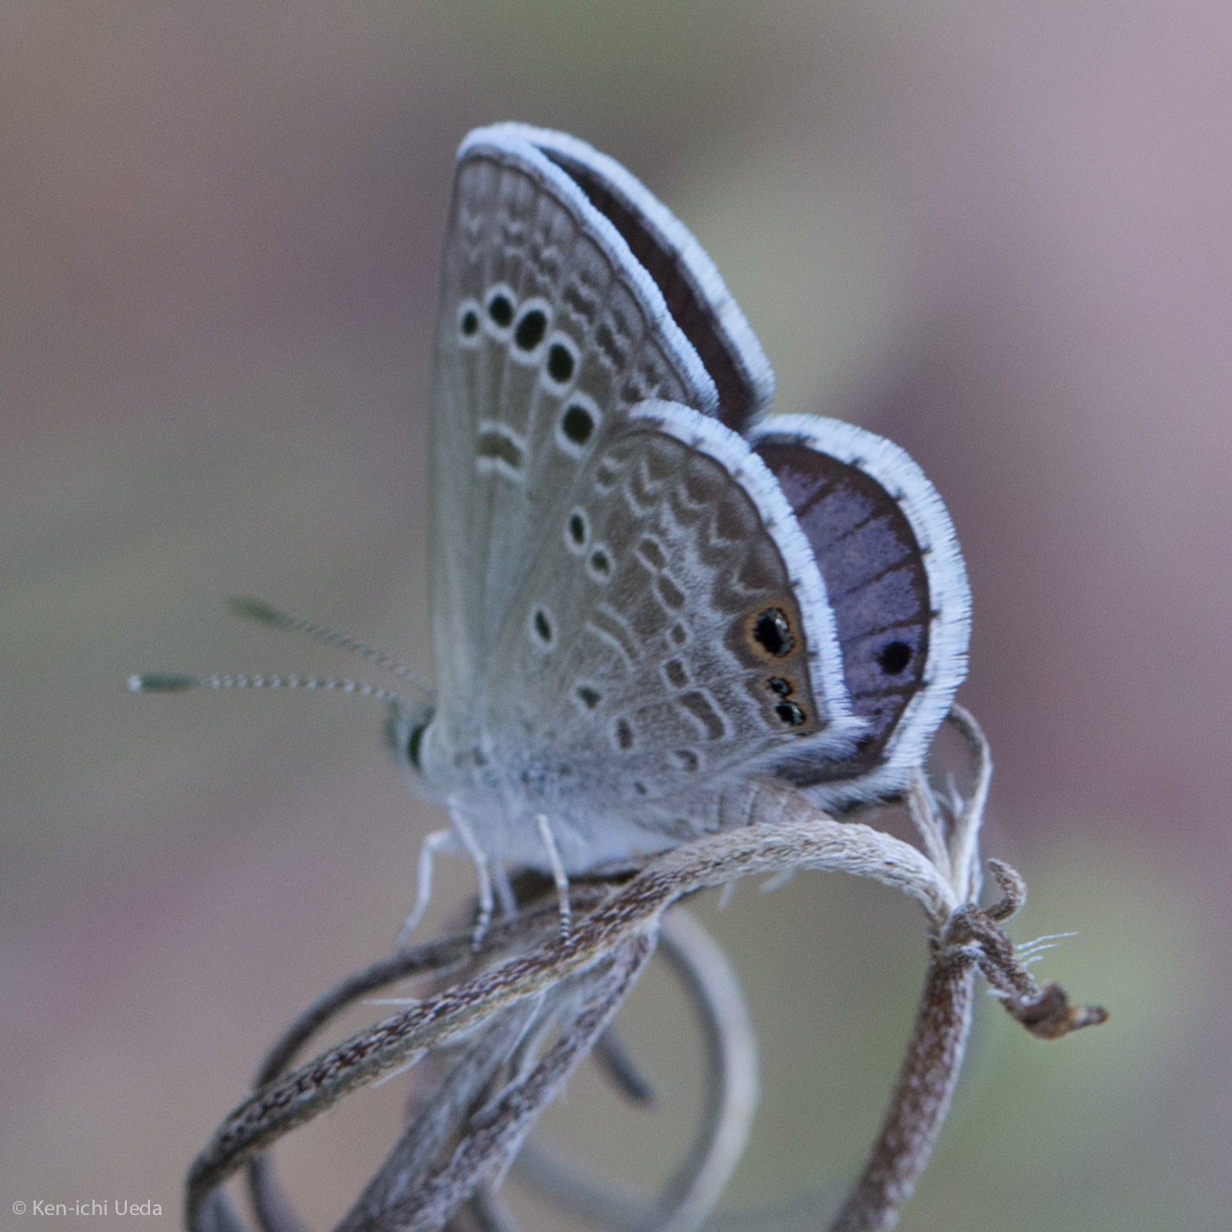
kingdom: Animalia
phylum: Arthropoda
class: Insecta
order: Lepidoptera
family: Lycaenidae
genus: Echinargus
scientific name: Echinargus isola
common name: Reakirt's blue
